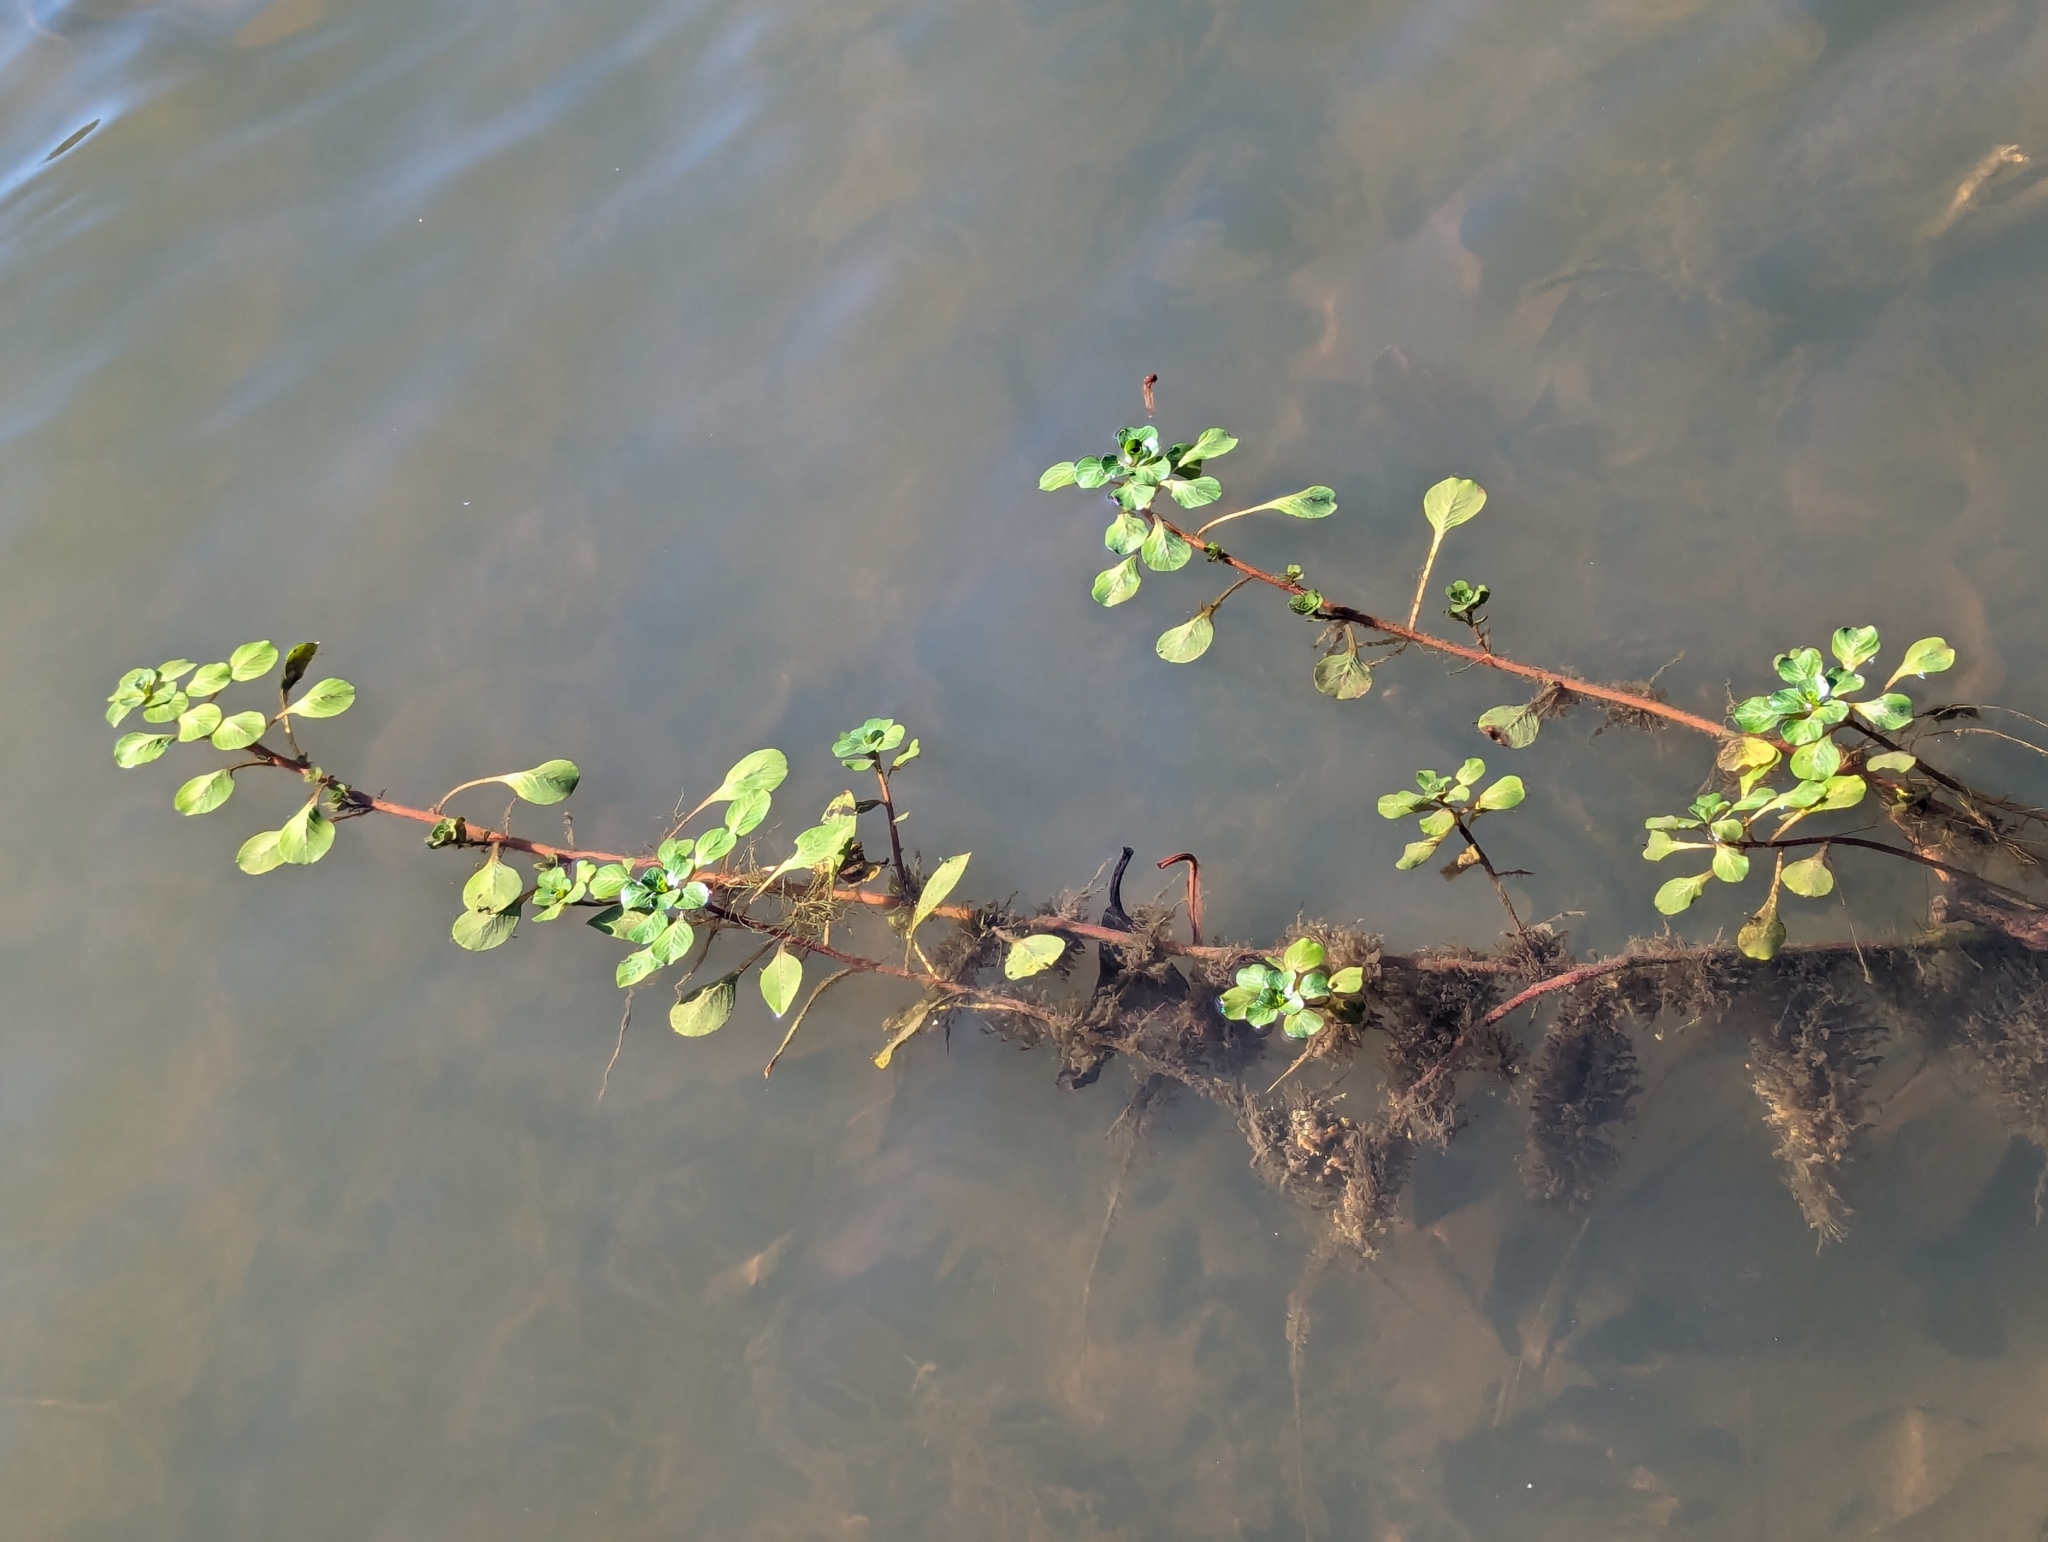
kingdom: Plantae
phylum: Tracheophyta
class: Magnoliopsida
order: Myrtales
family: Onagraceae
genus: Ludwigia
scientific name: Ludwigia peploides
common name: Floating primrose-willow
